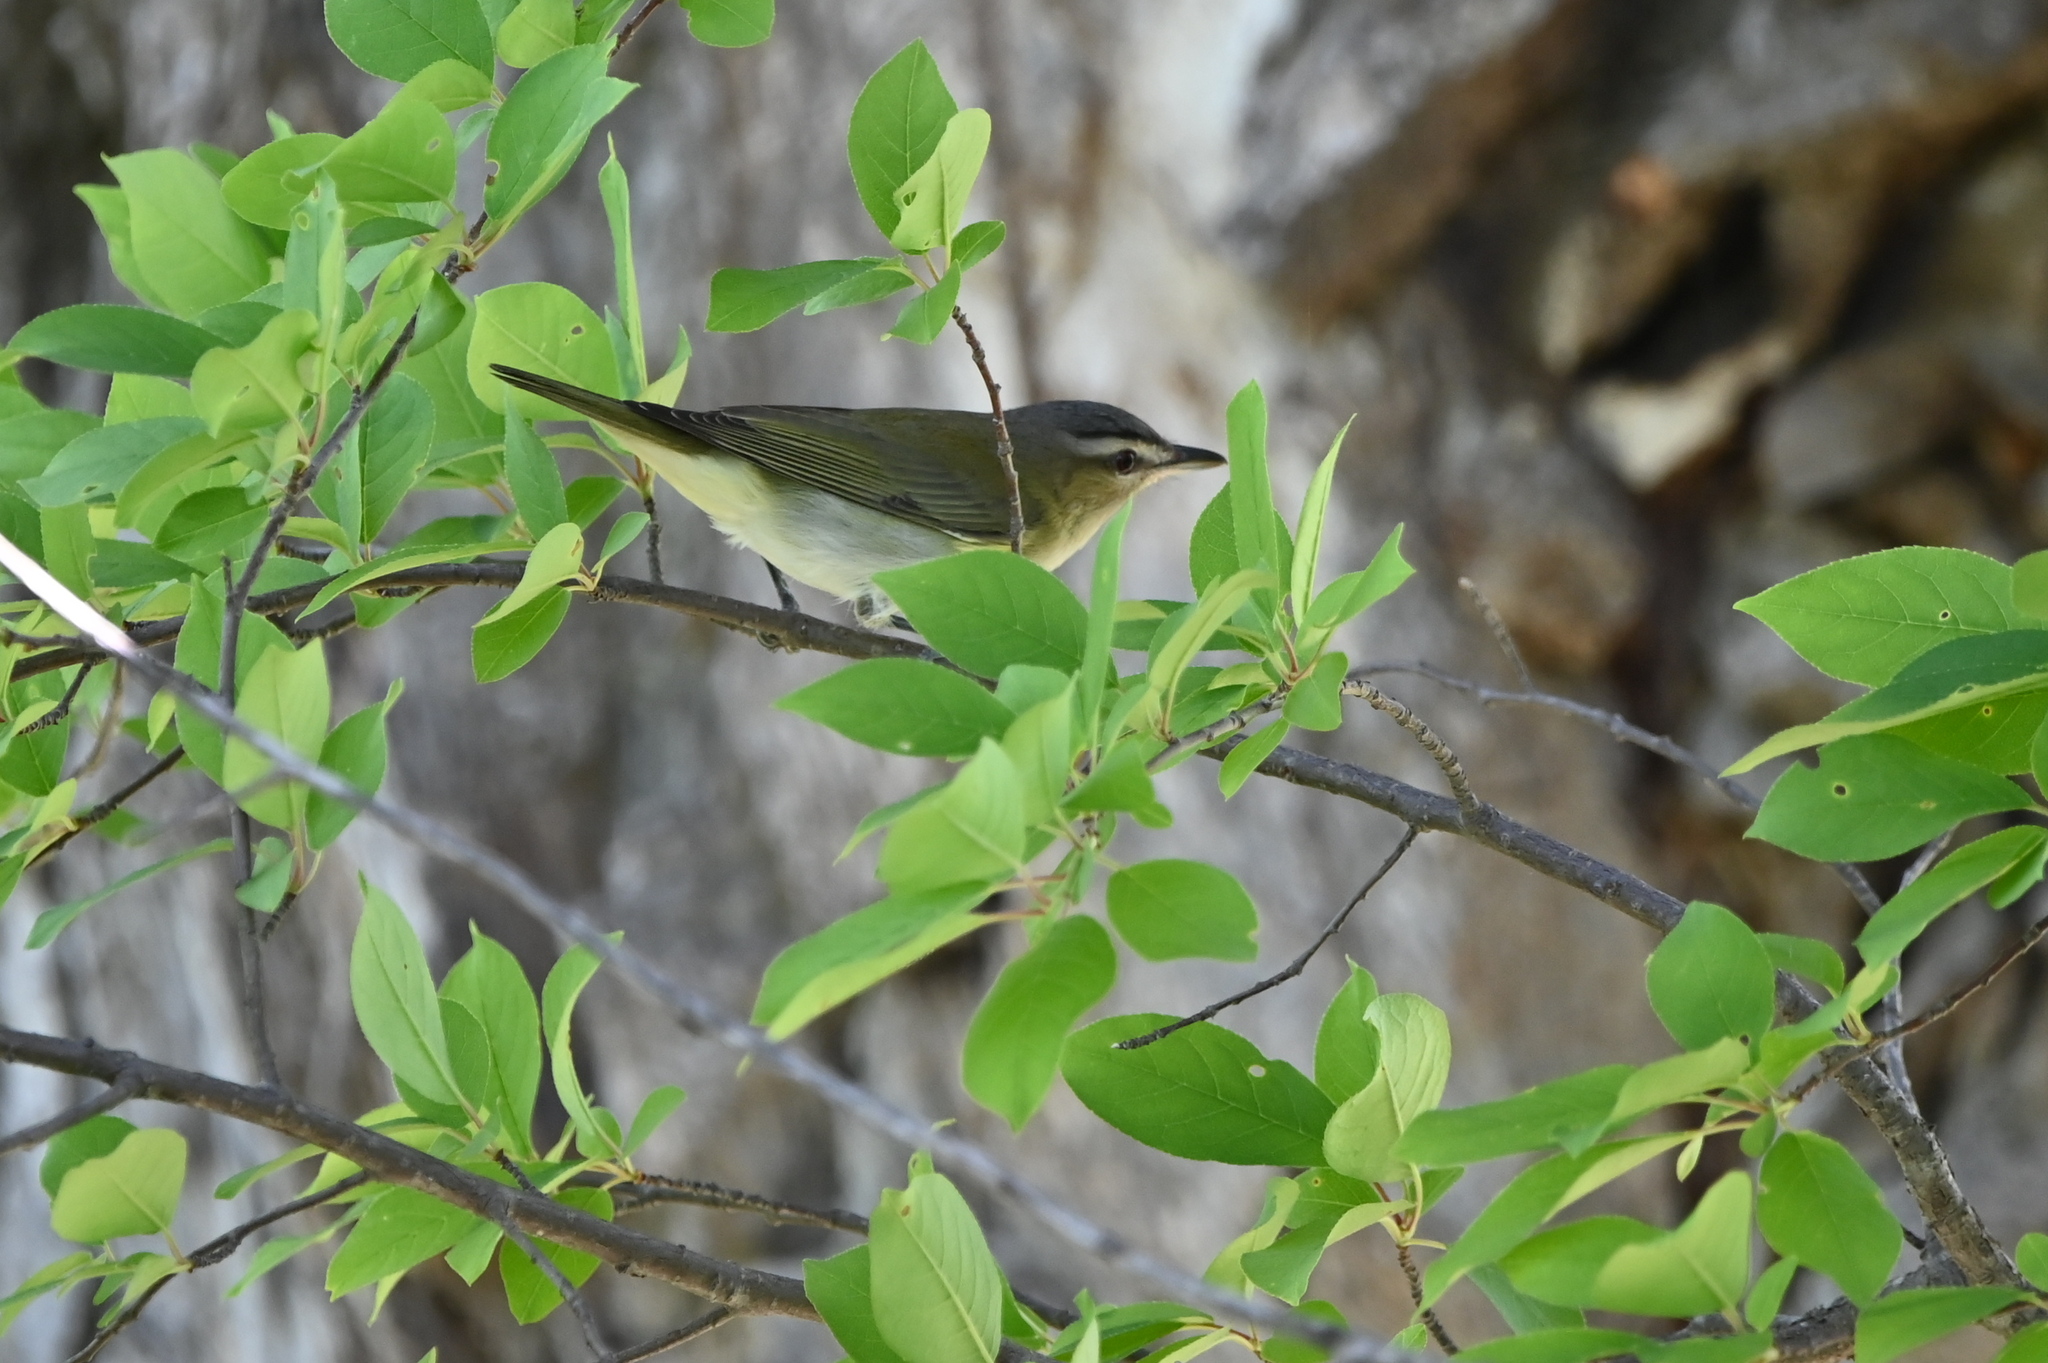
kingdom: Animalia
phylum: Chordata
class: Aves
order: Passeriformes
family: Vireonidae
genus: Vireo
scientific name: Vireo olivaceus
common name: Red-eyed vireo
